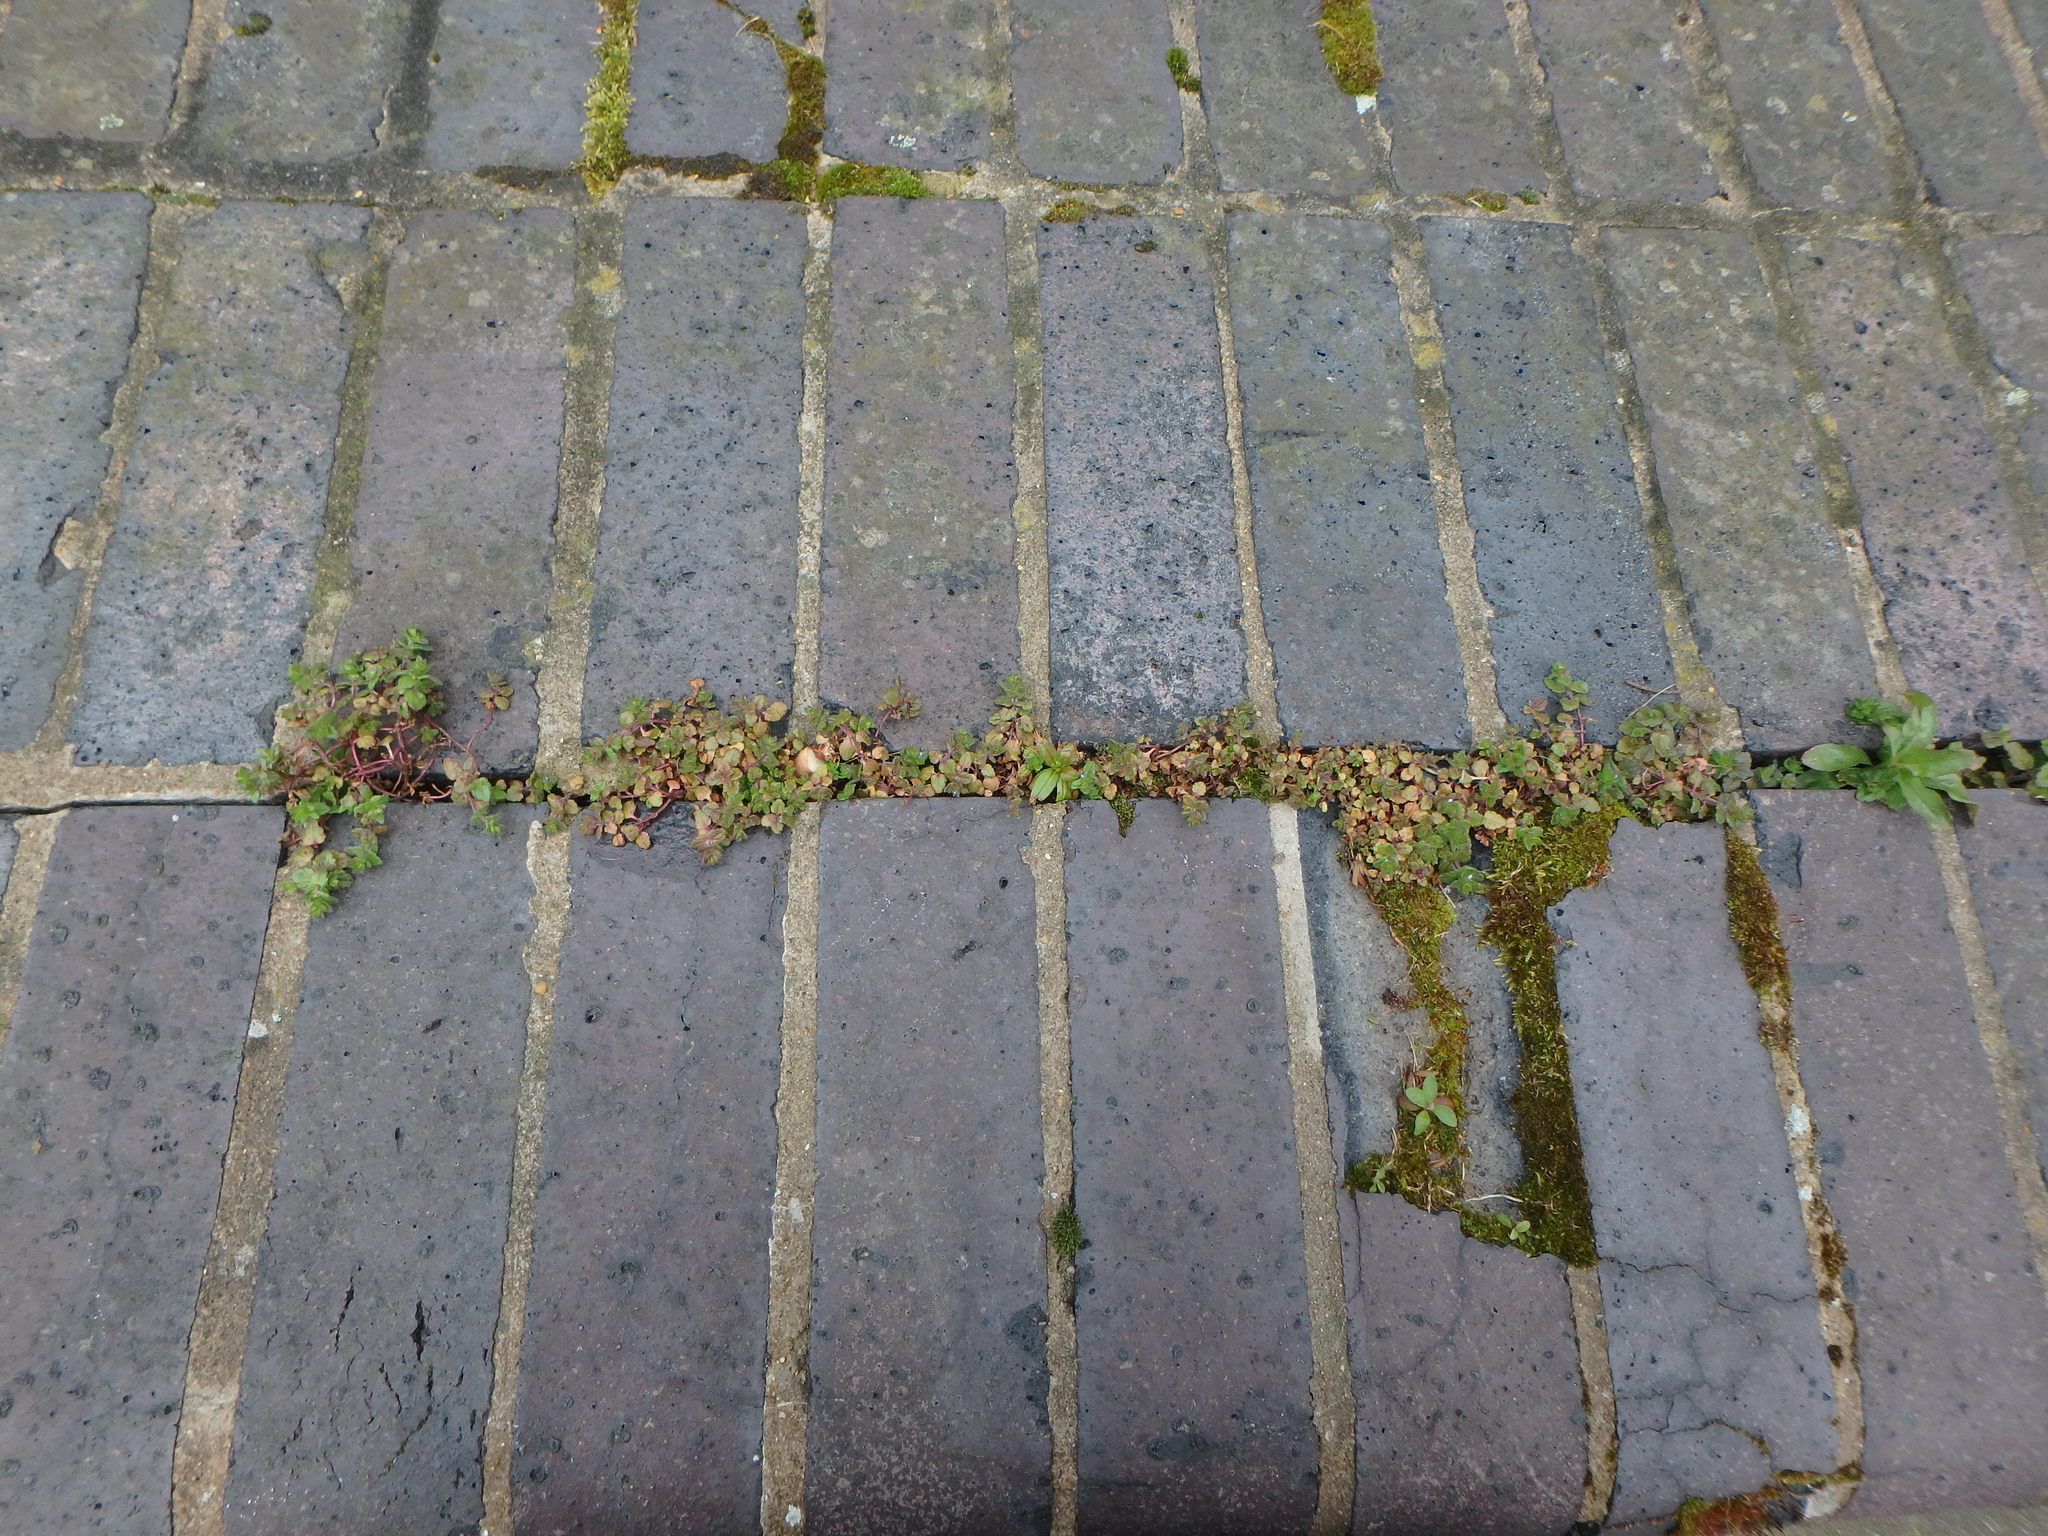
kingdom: Plantae
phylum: Tracheophyta
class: Magnoliopsida
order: Lamiales
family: Plantaginaceae
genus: Veronica
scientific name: Veronica arvensis
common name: Corn speedwell
